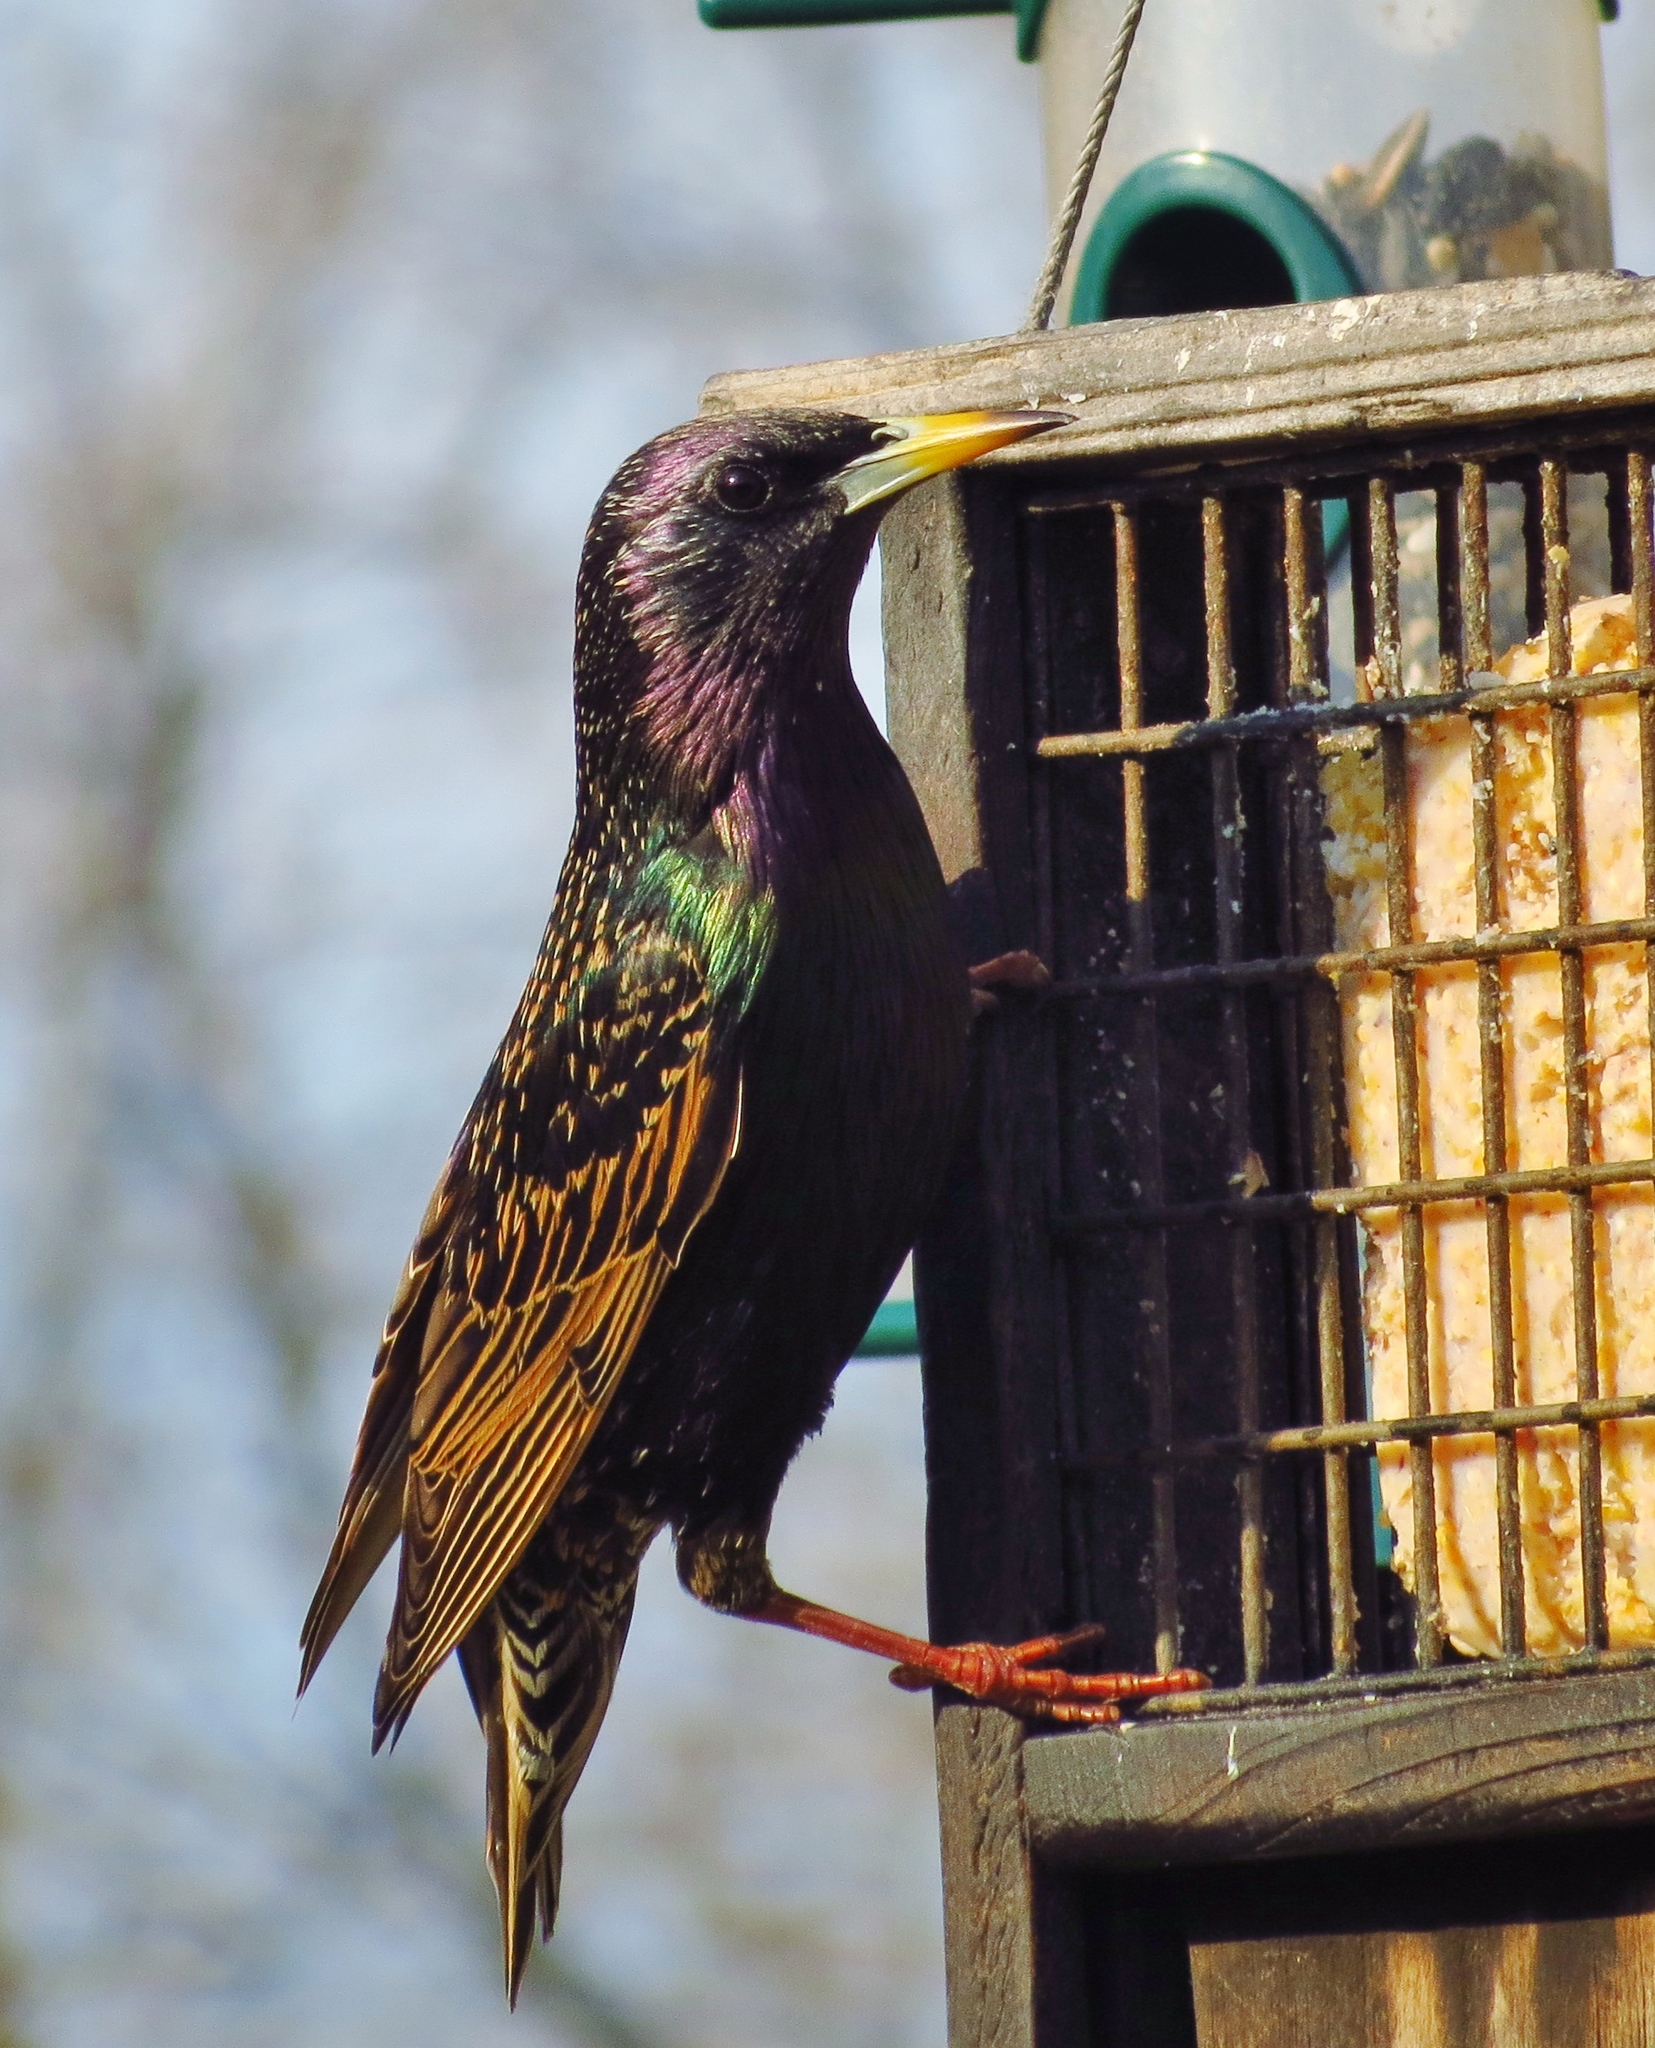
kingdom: Animalia
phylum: Chordata
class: Aves
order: Passeriformes
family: Sturnidae
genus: Sturnus
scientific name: Sturnus vulgaris
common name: Common starling
